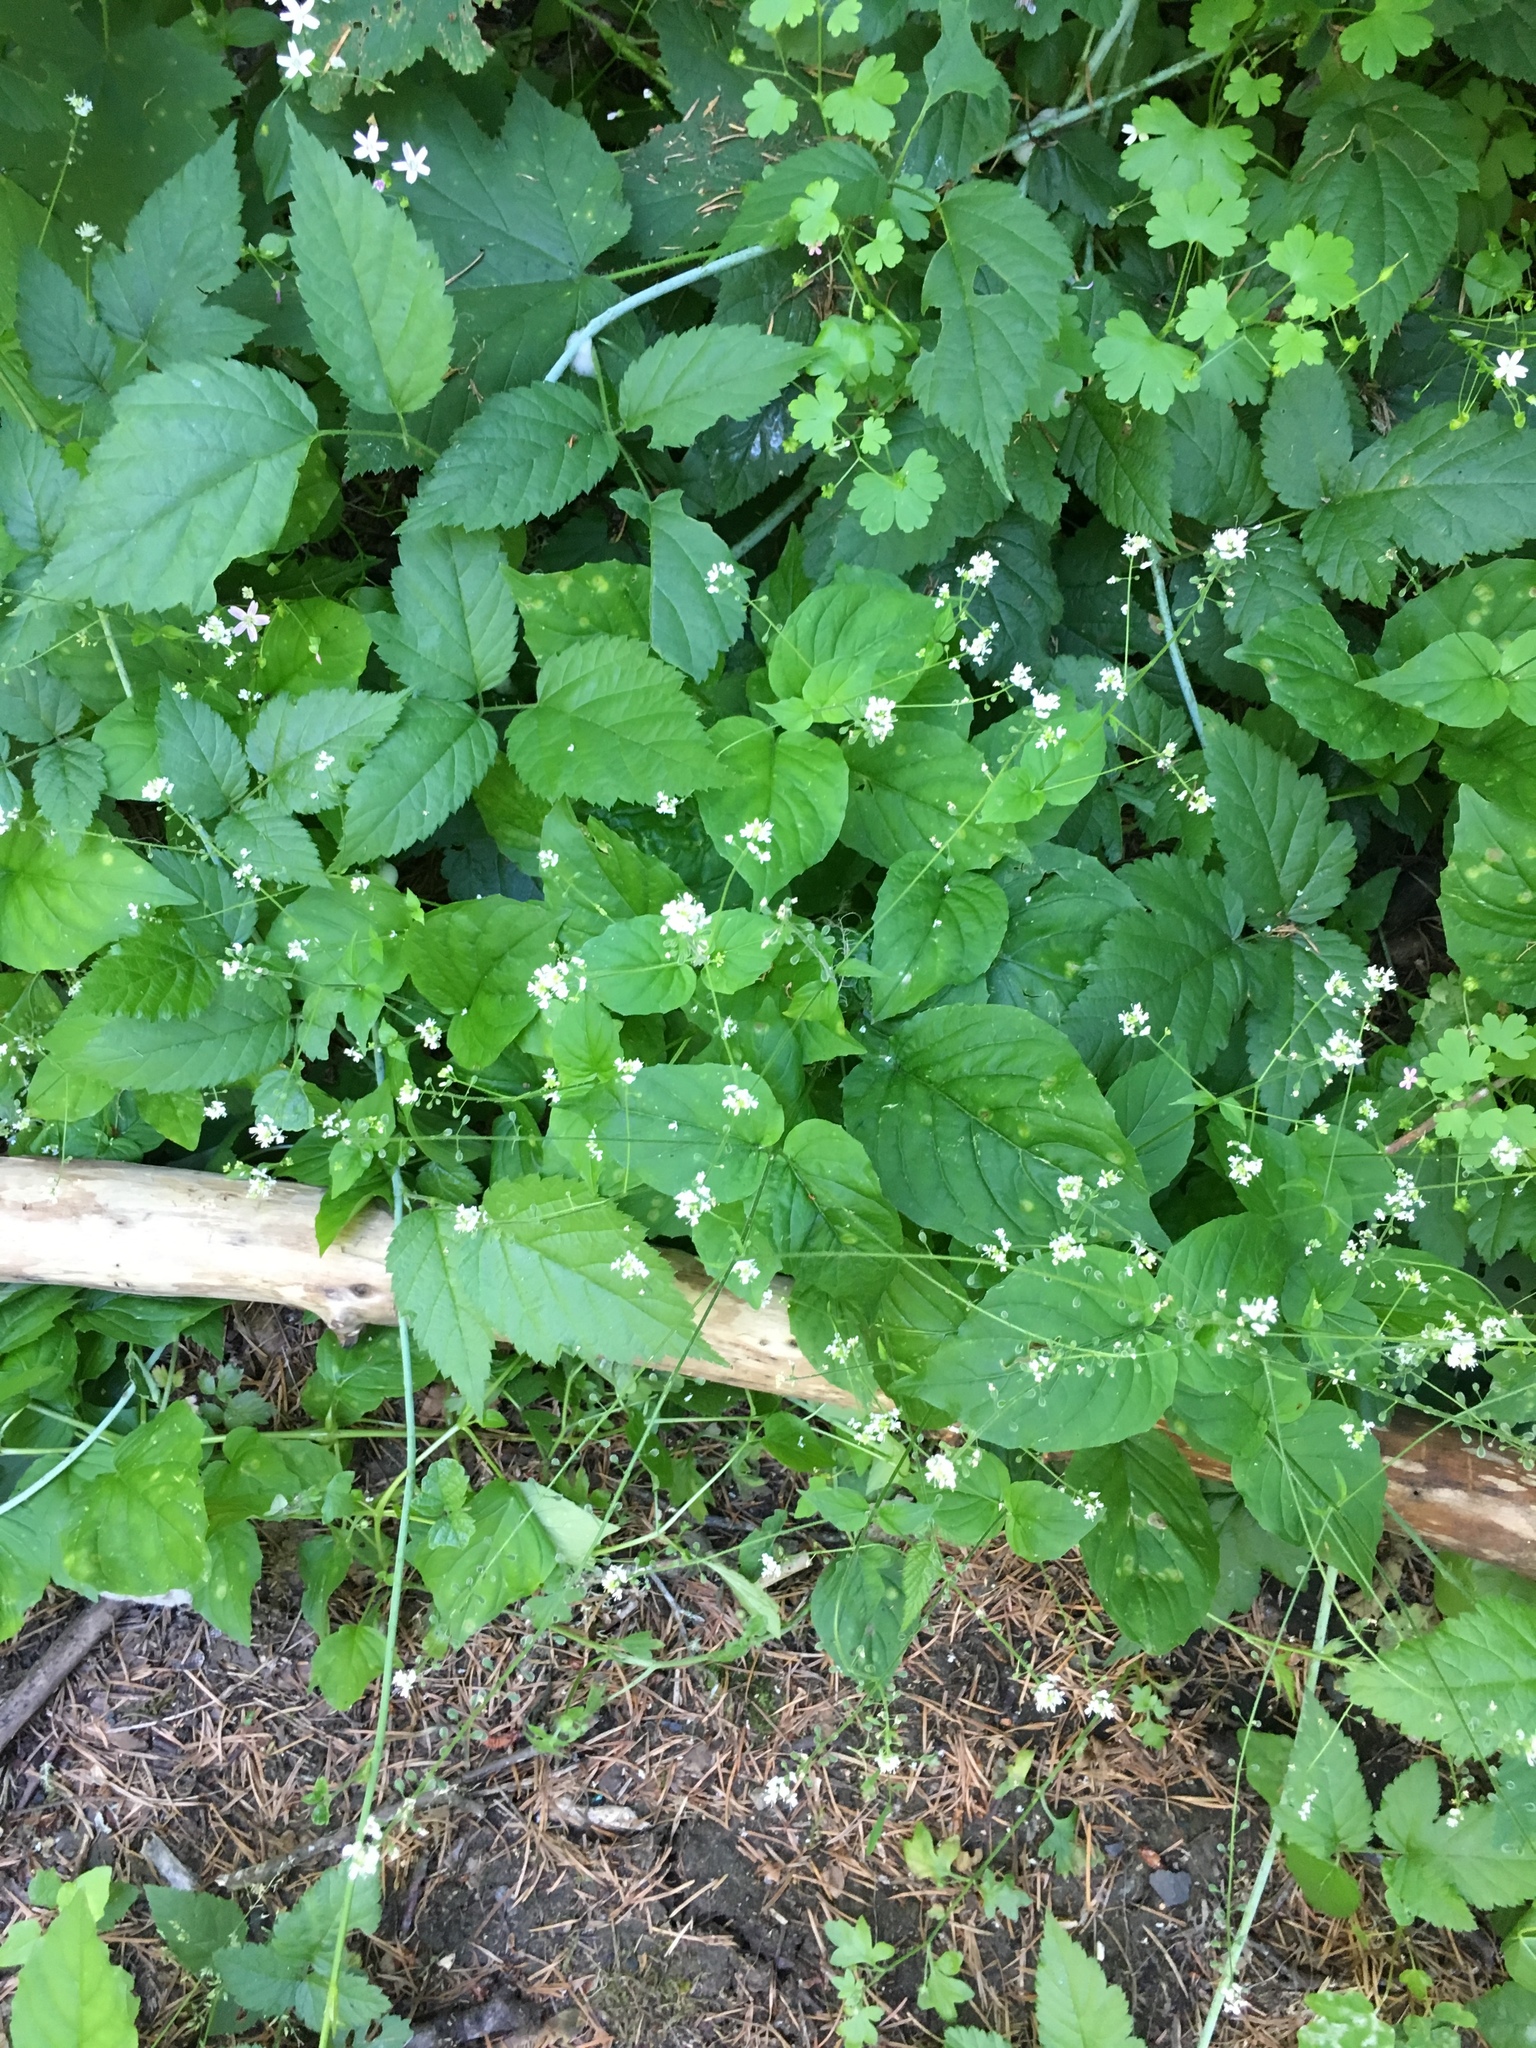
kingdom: Plantae
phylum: Tracheophyta
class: Magnoliopsida
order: Myrtales
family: Onagraceae
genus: Circaea
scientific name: Circaea alpina
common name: Alpine enchanter's-nightshade
